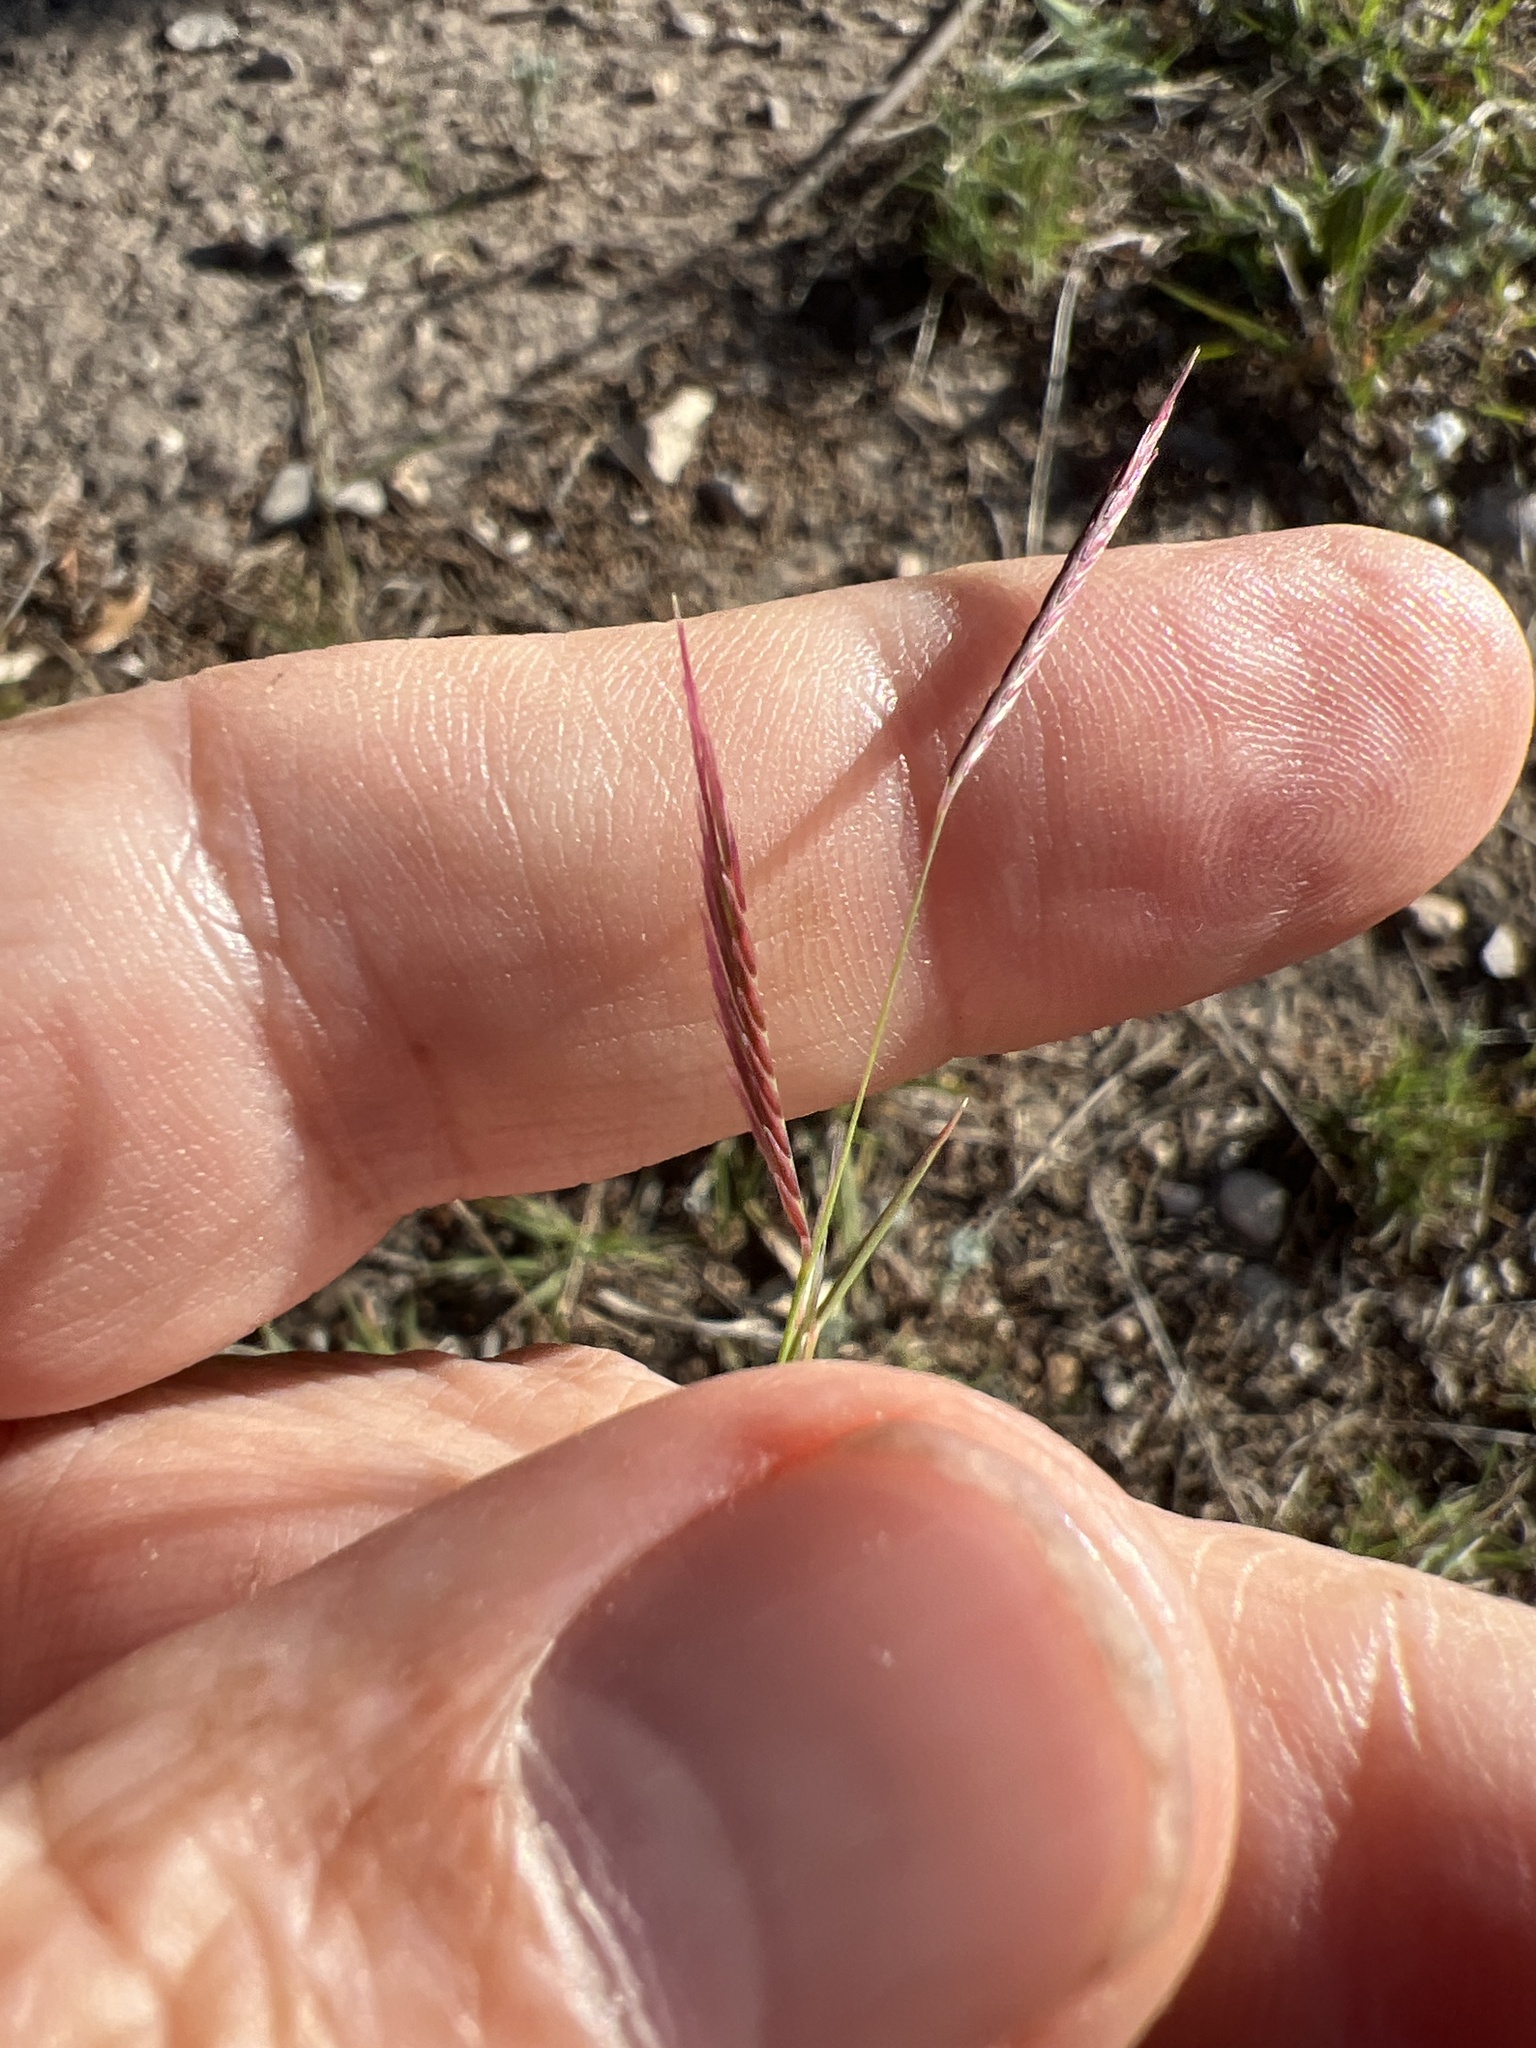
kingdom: Plantae
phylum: Tracheophyta
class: Liliopsida
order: Poales
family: Poaceae
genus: Bouteloua
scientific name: Bouteloua trifida
